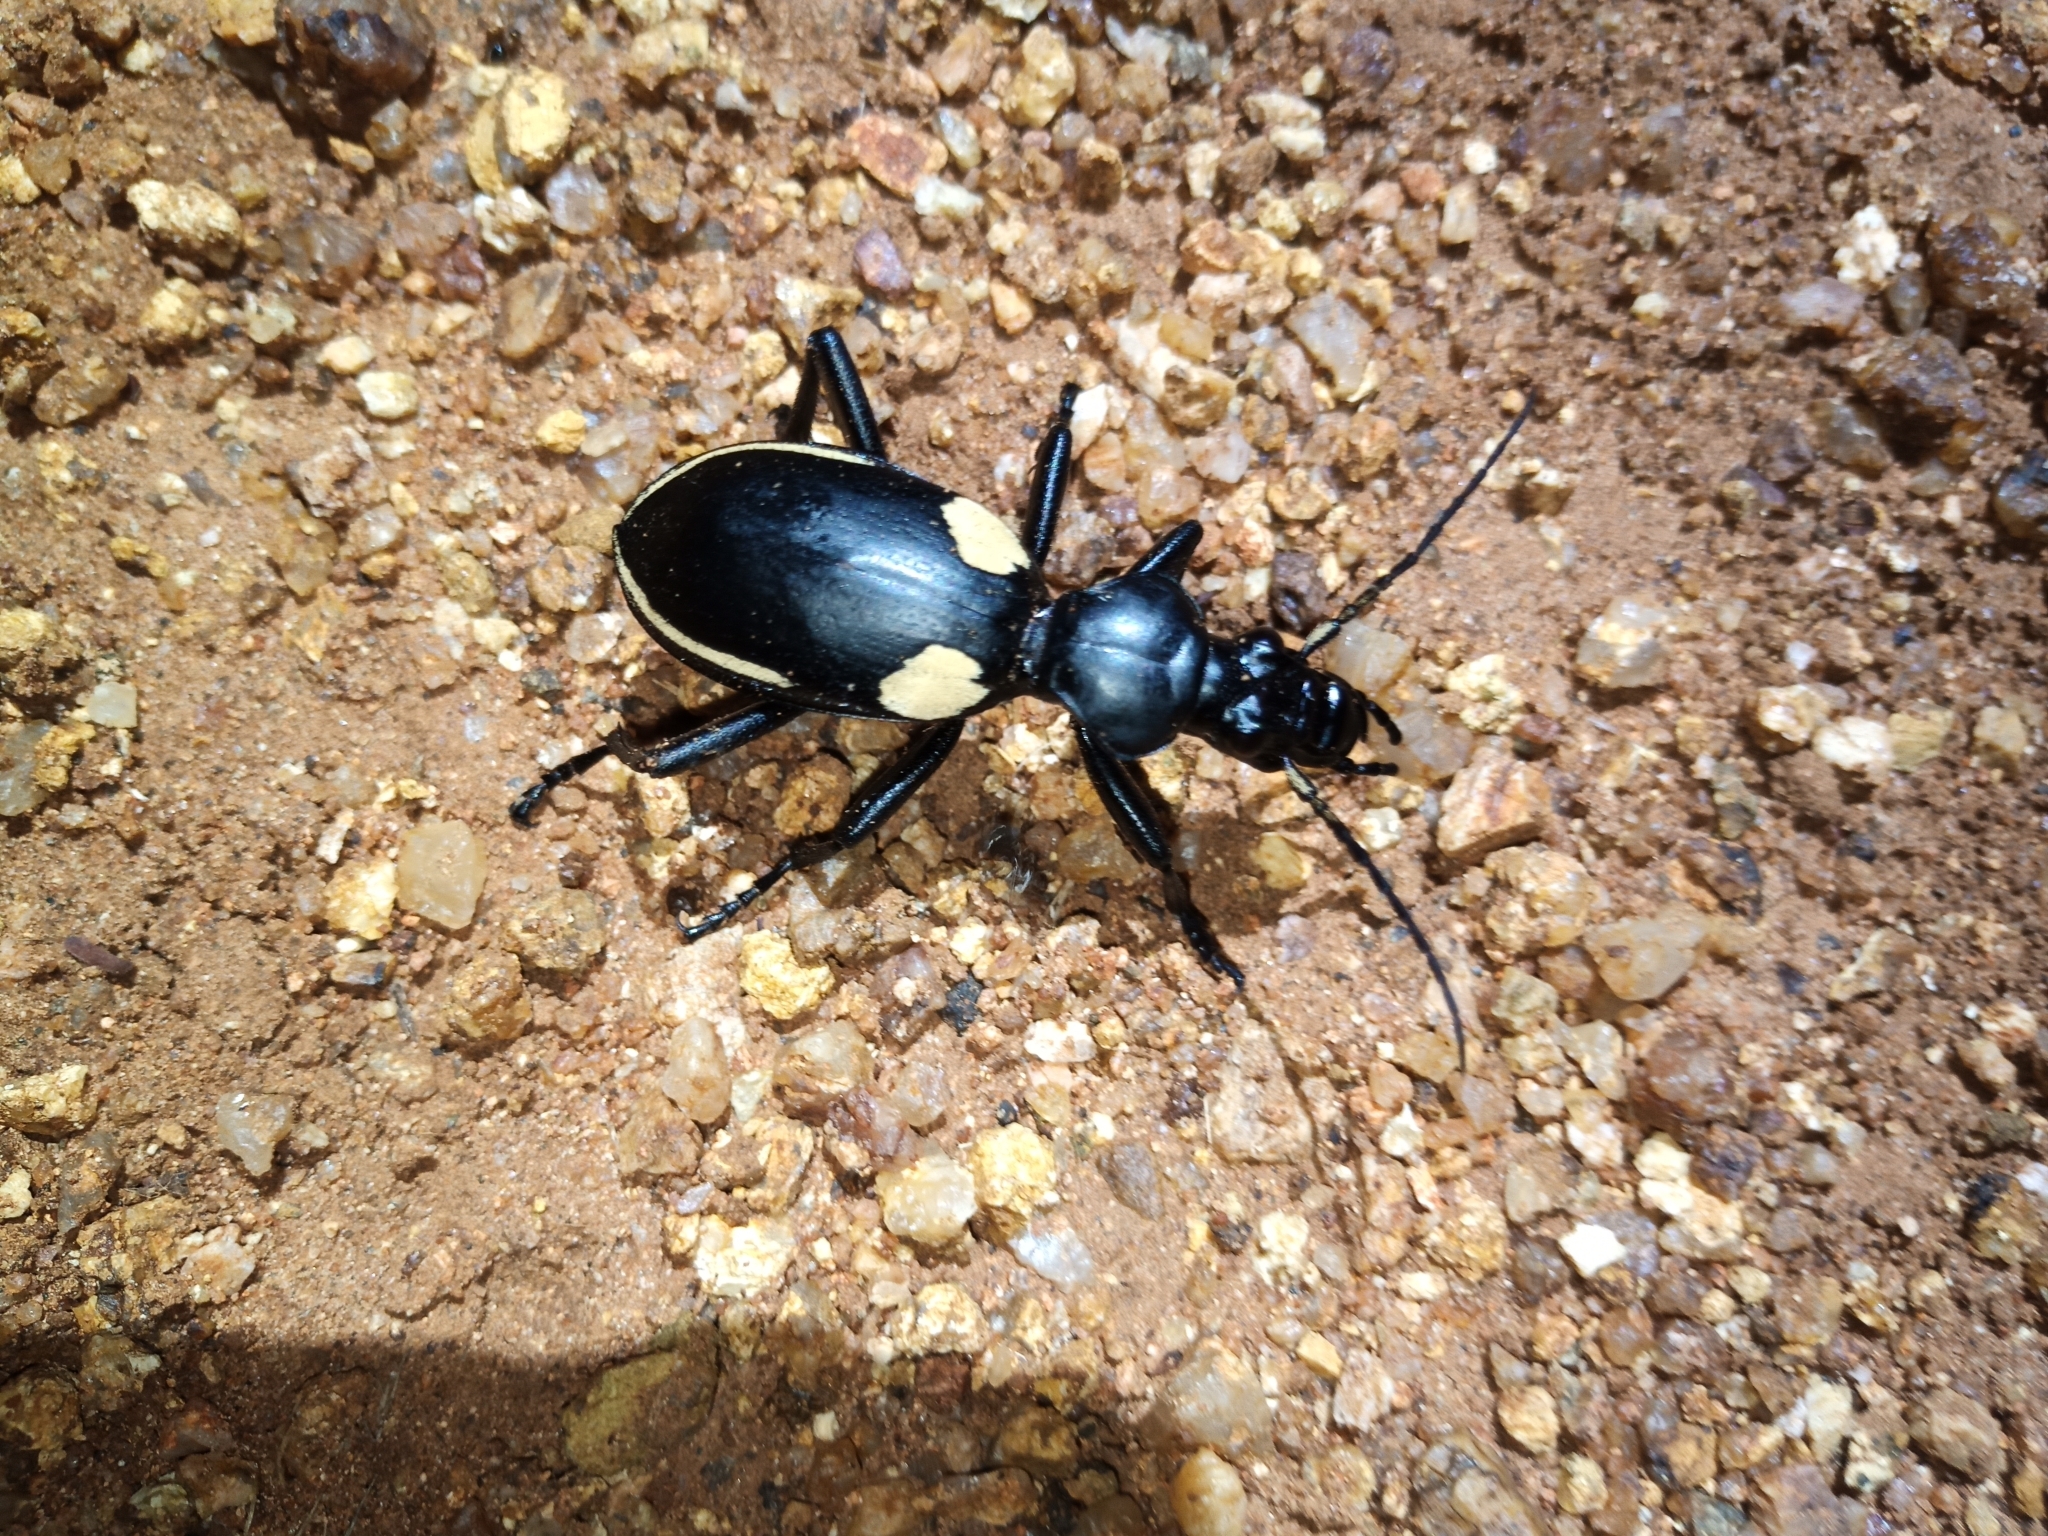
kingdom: Animalia
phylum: Arthropoda
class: Insecta
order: Coleoptera
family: Carabidae
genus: Anthia
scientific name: Anthia
